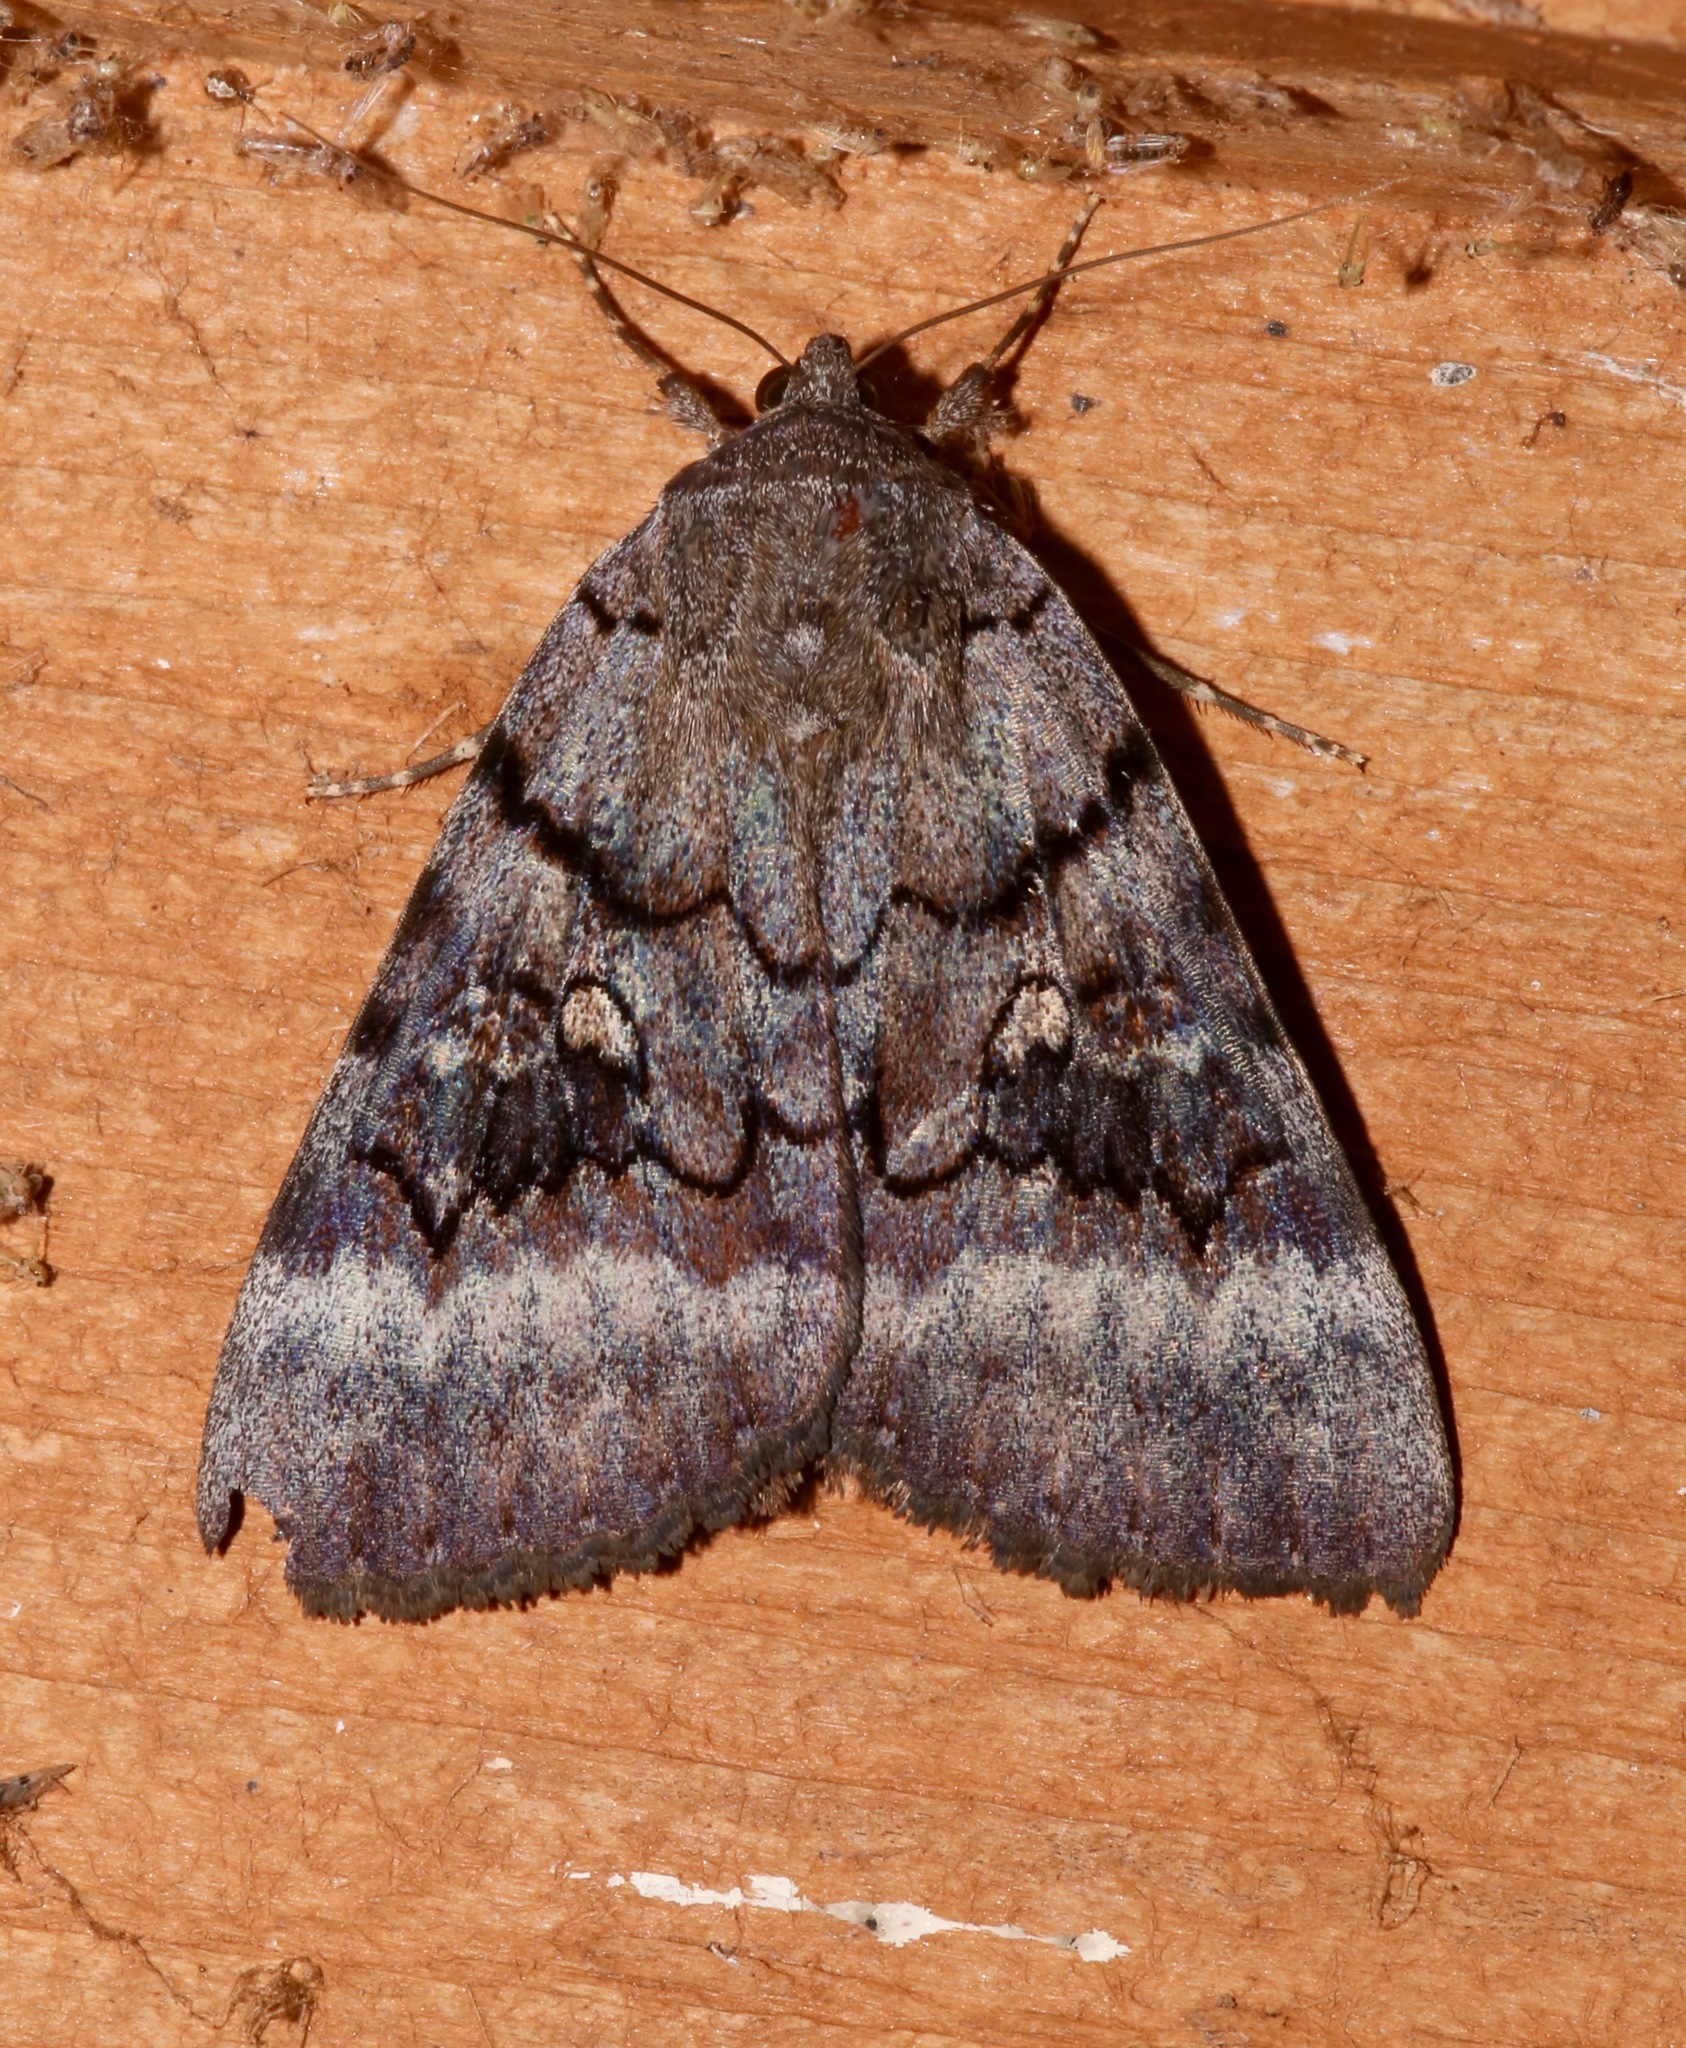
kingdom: Animalia
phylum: Arthropoda
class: Insecta
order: Lepidoptera
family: Erebidae
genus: Catocala
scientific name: Catocala epione
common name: Epione underwing
